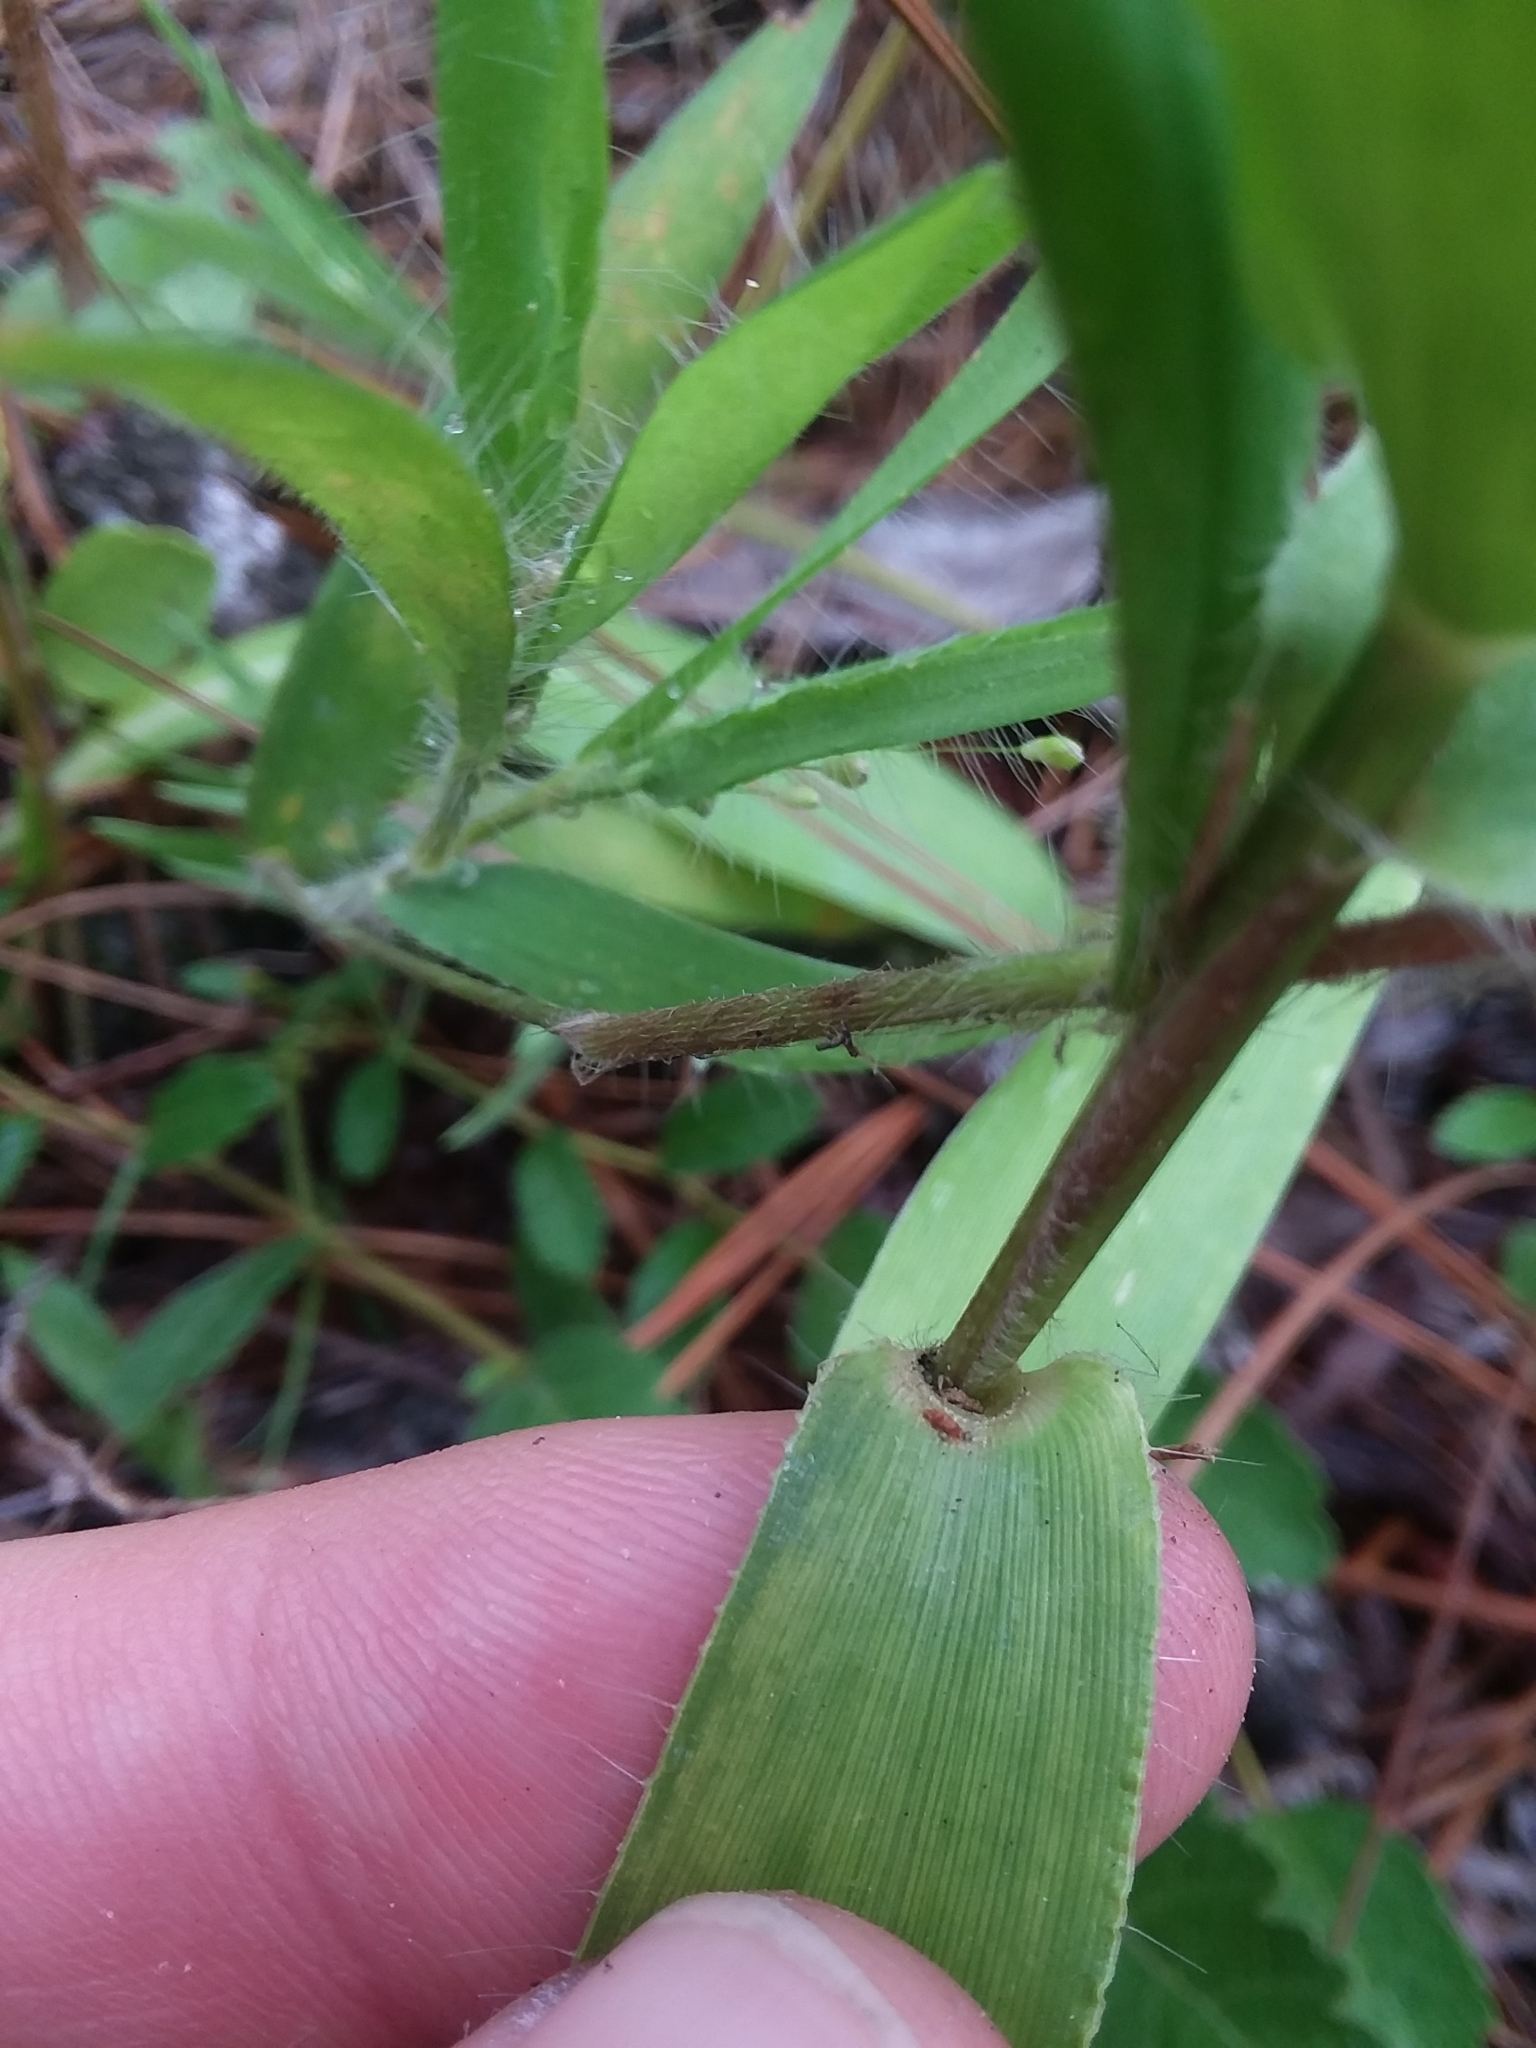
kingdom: Plantae
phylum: Tracheophyta
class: Liliopsida
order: Poales
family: Poaceae
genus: Dichanthelium
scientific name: Dichanthelium sphaerocarpon
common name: Round-fruited panicgrass
